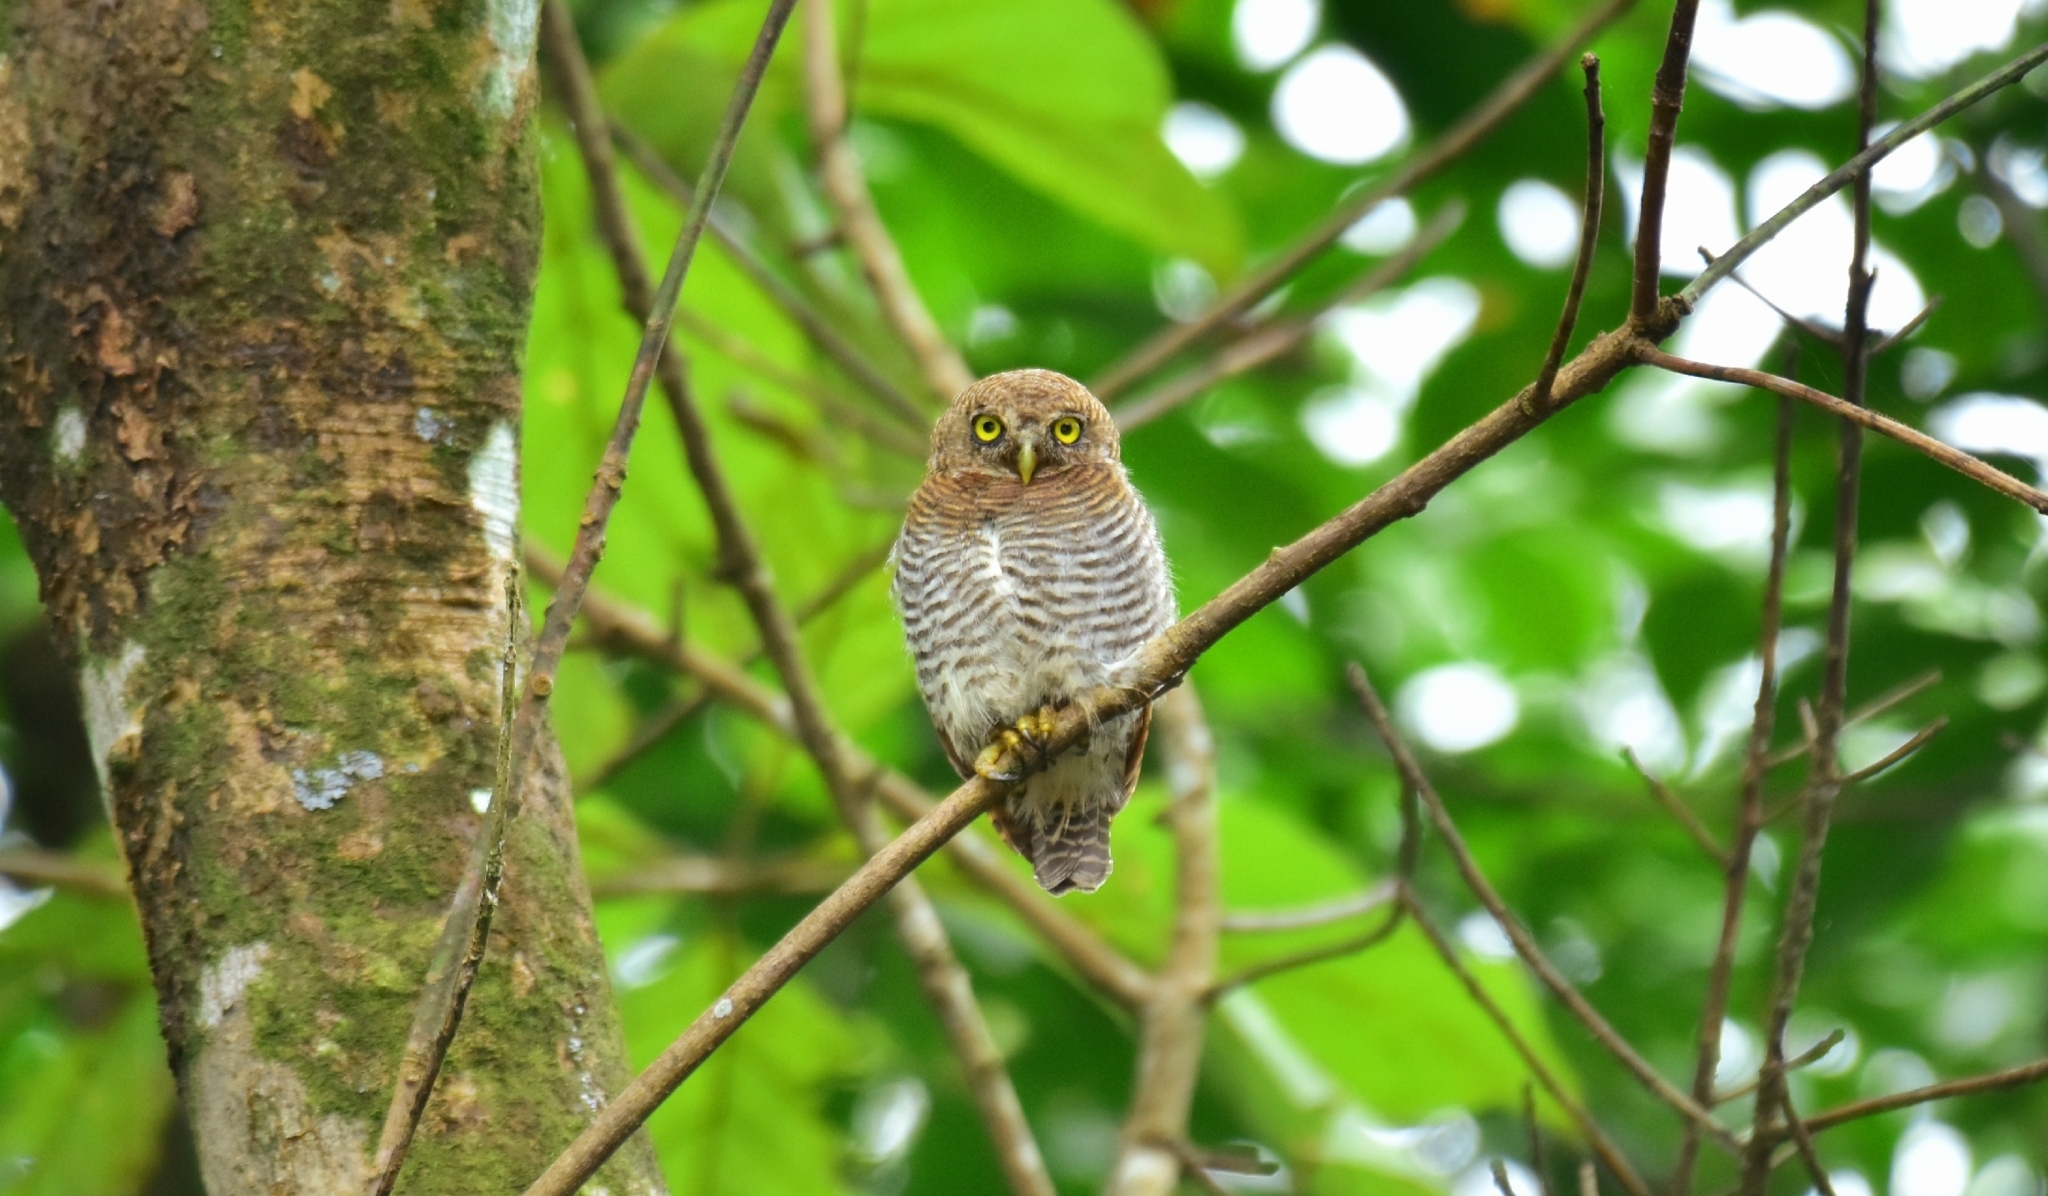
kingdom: Animalia
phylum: Chordata
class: Aves
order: Strigiformes
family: Strigidae
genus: Glaucidium
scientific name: Glaucidium radiatum
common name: Jungle owlet
